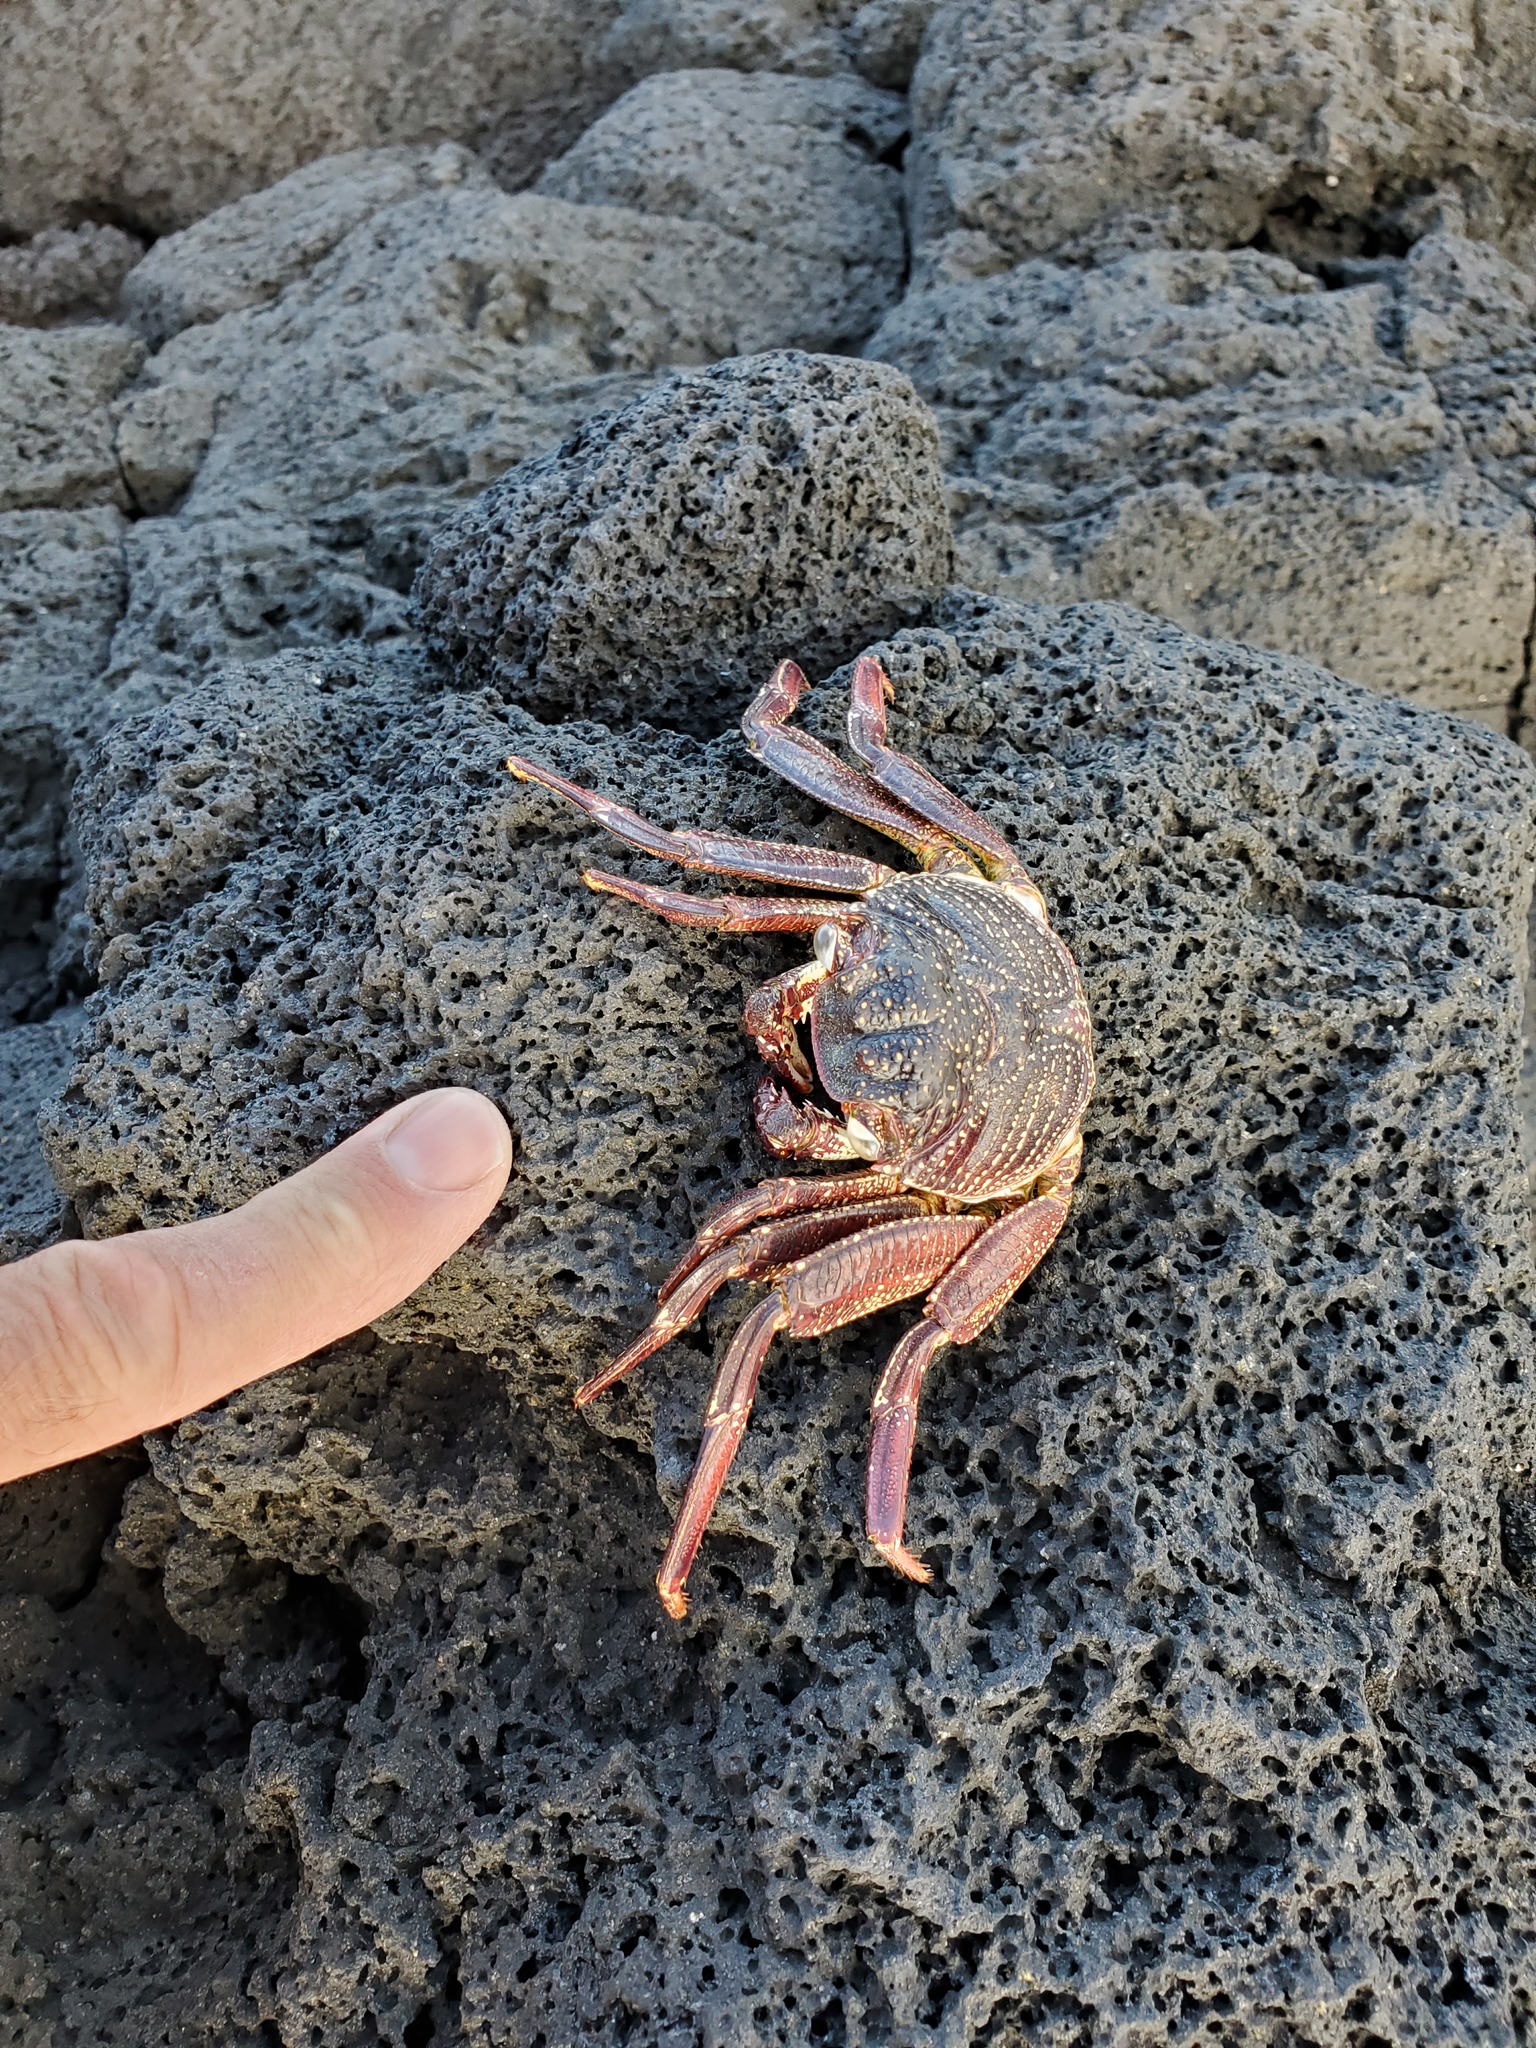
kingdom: Animalia
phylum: Arthropoda
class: Malacostraca
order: Decapoda
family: Grapsidae
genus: Grapsus
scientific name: Grapsus tenuicrustatus
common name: Natal lightfoot crab
